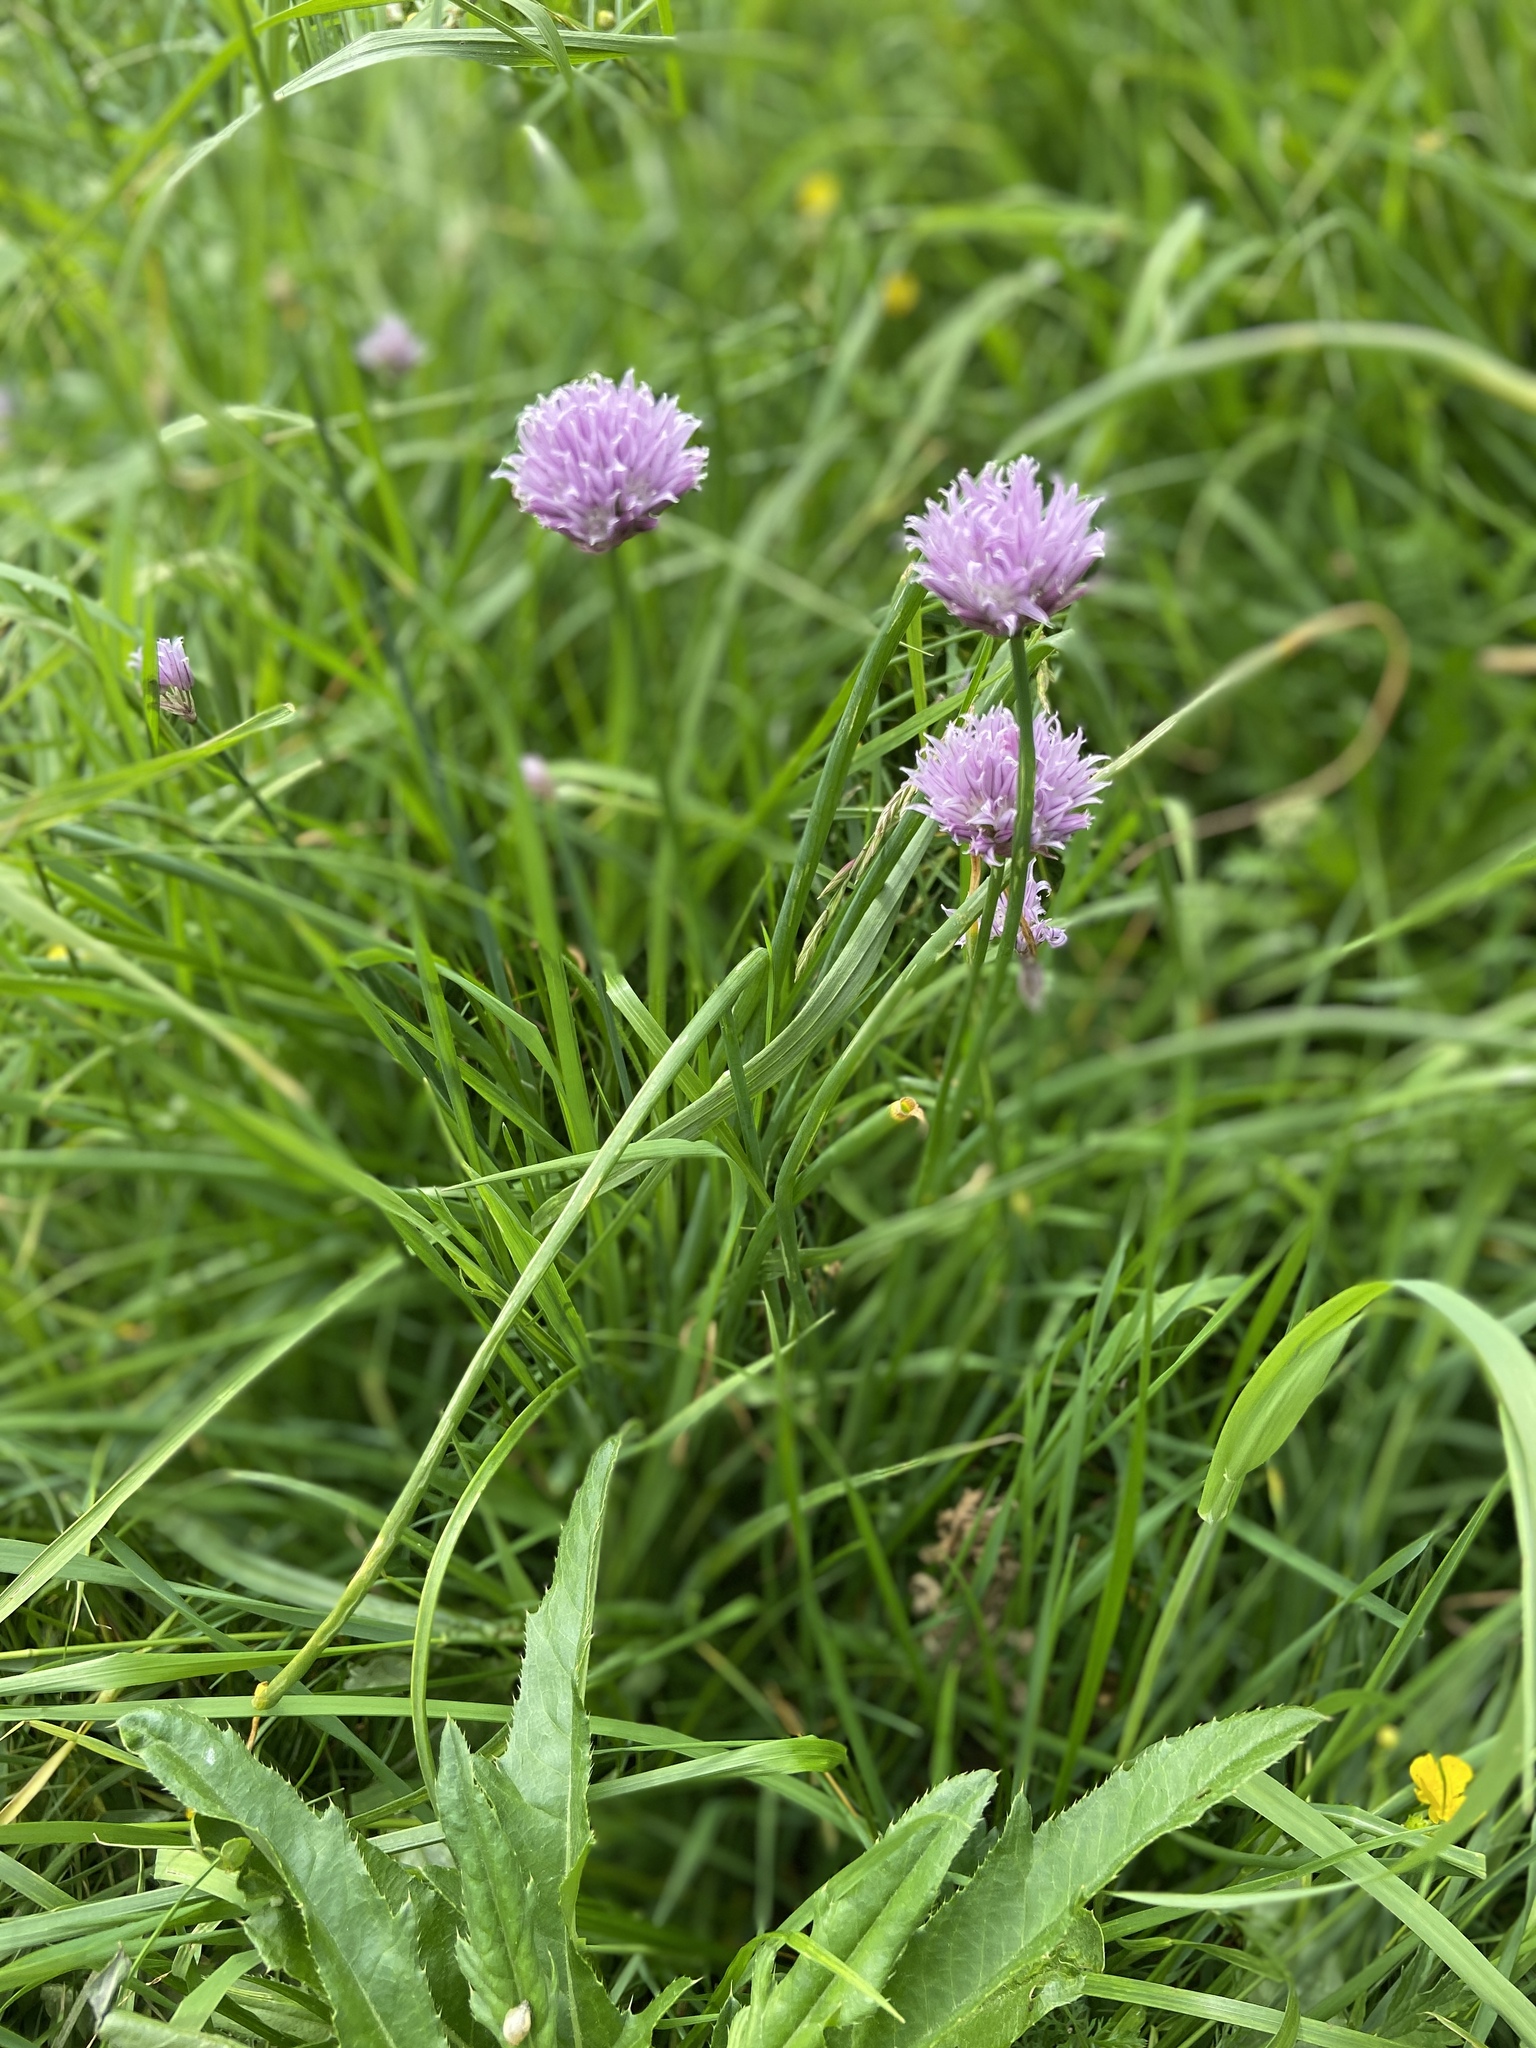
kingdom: Plantae
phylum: Tracheophyta
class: Liliopsida
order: Asparagales
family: Amaryllidaceae
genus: Allium
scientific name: Allium schoenoprasum
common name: Chives
